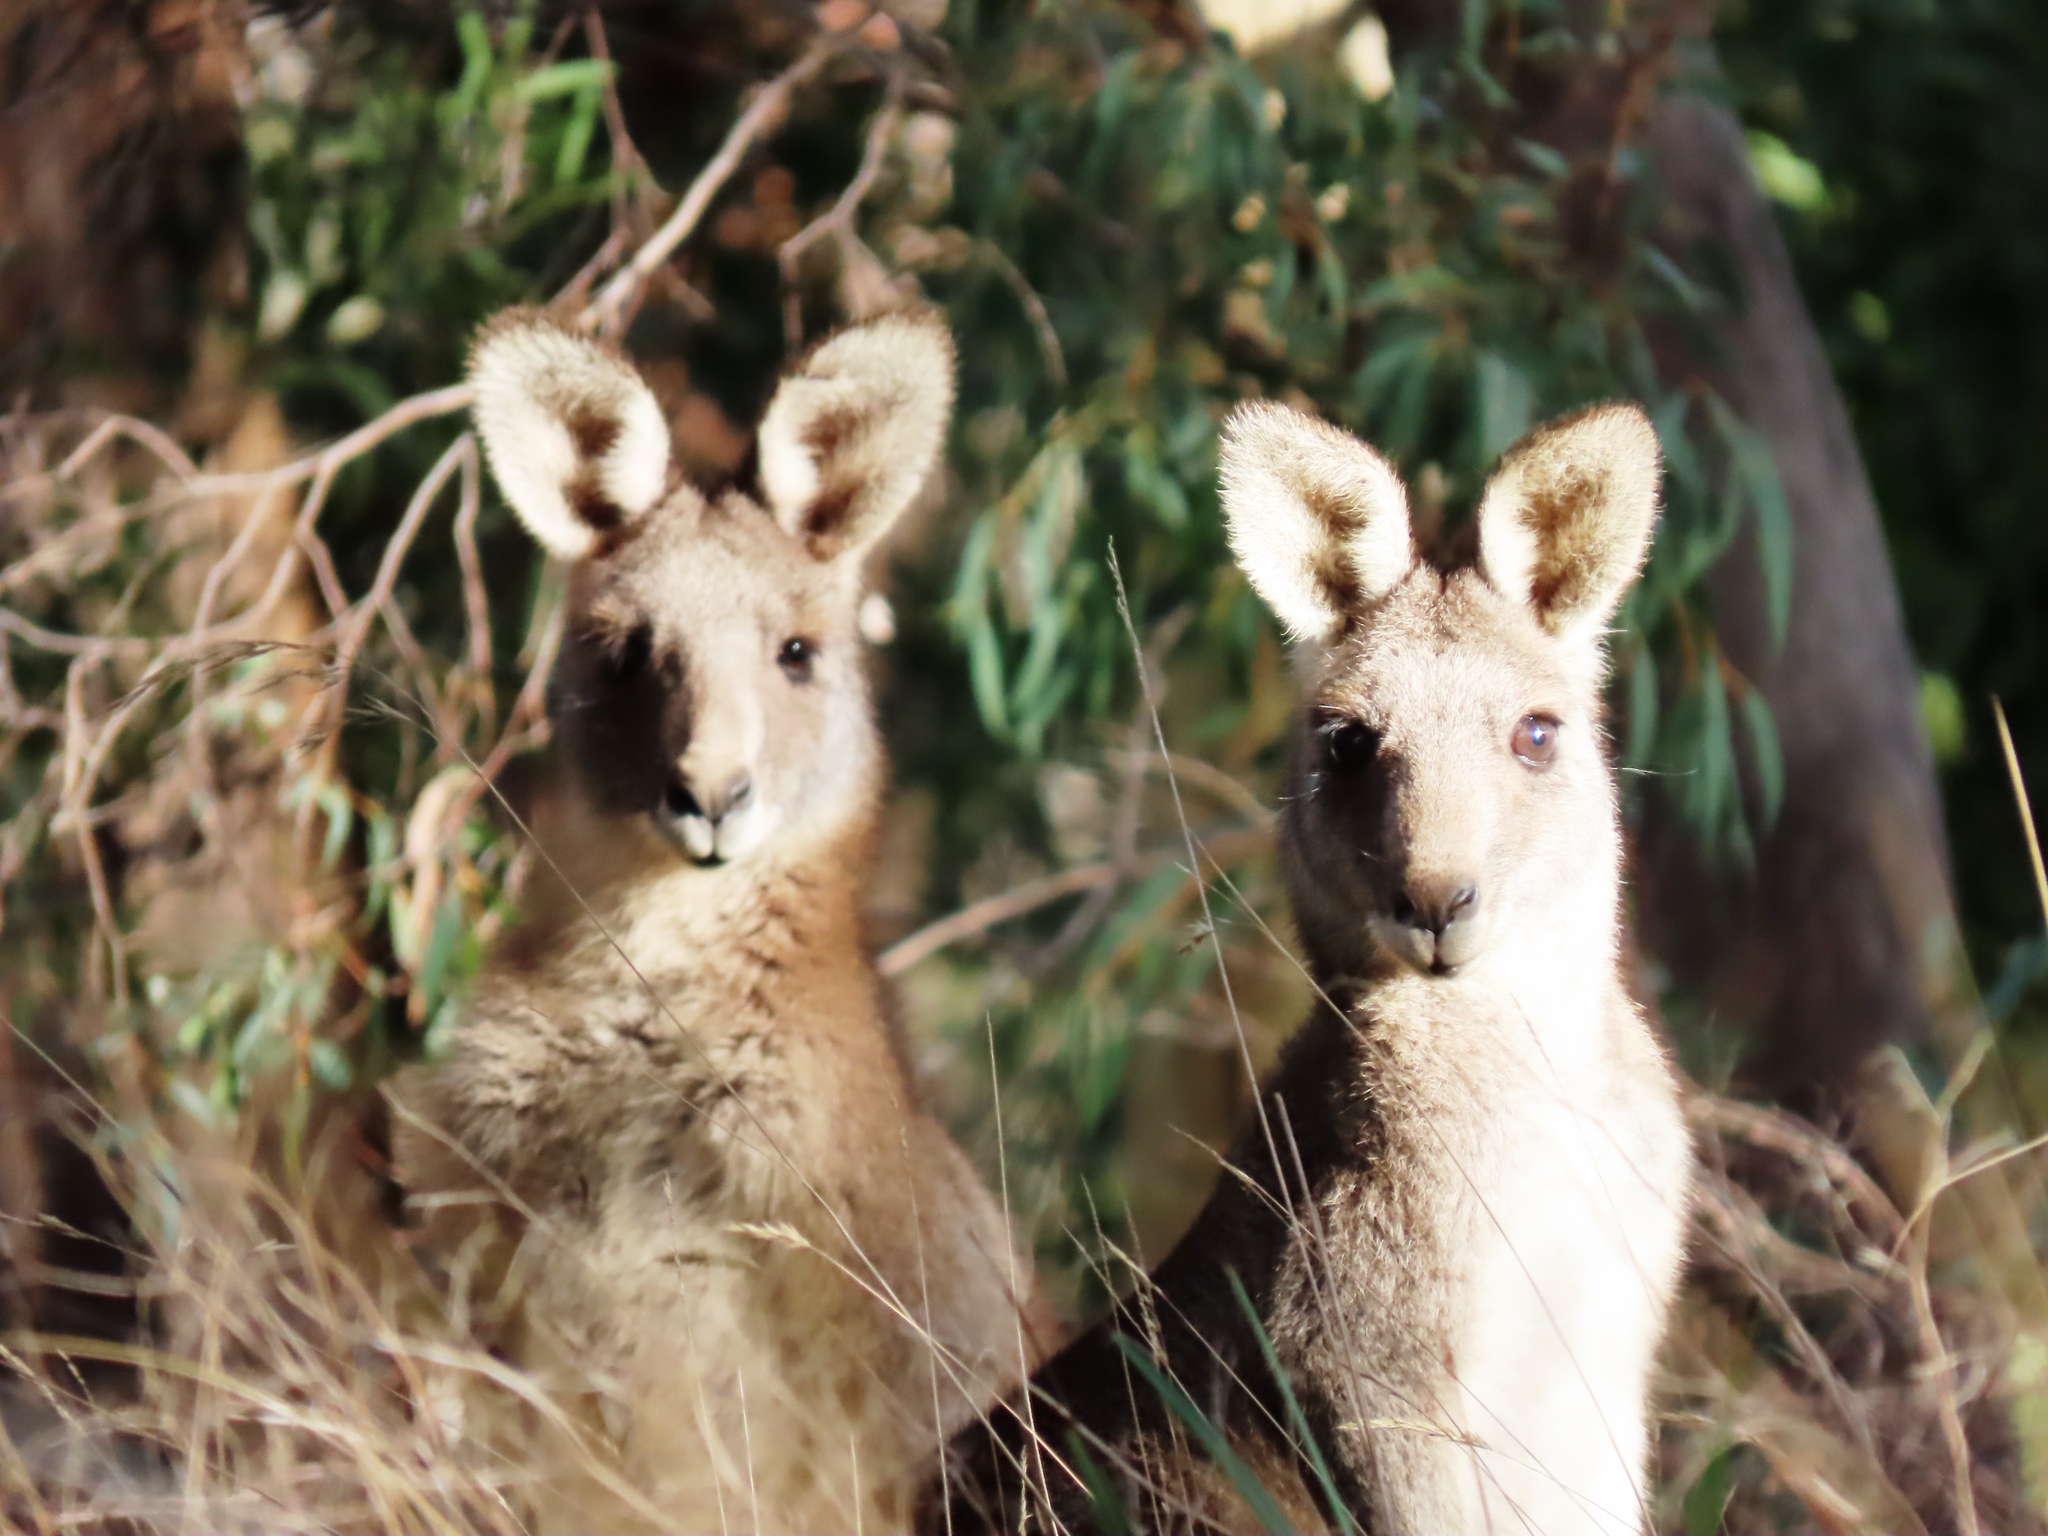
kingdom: Animalia
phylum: Chordata
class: Mammalia
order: Diprotodontia
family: Macropodidae
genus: Macropus
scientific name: Macropus giganteus
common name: Eastern grey kangaroo
